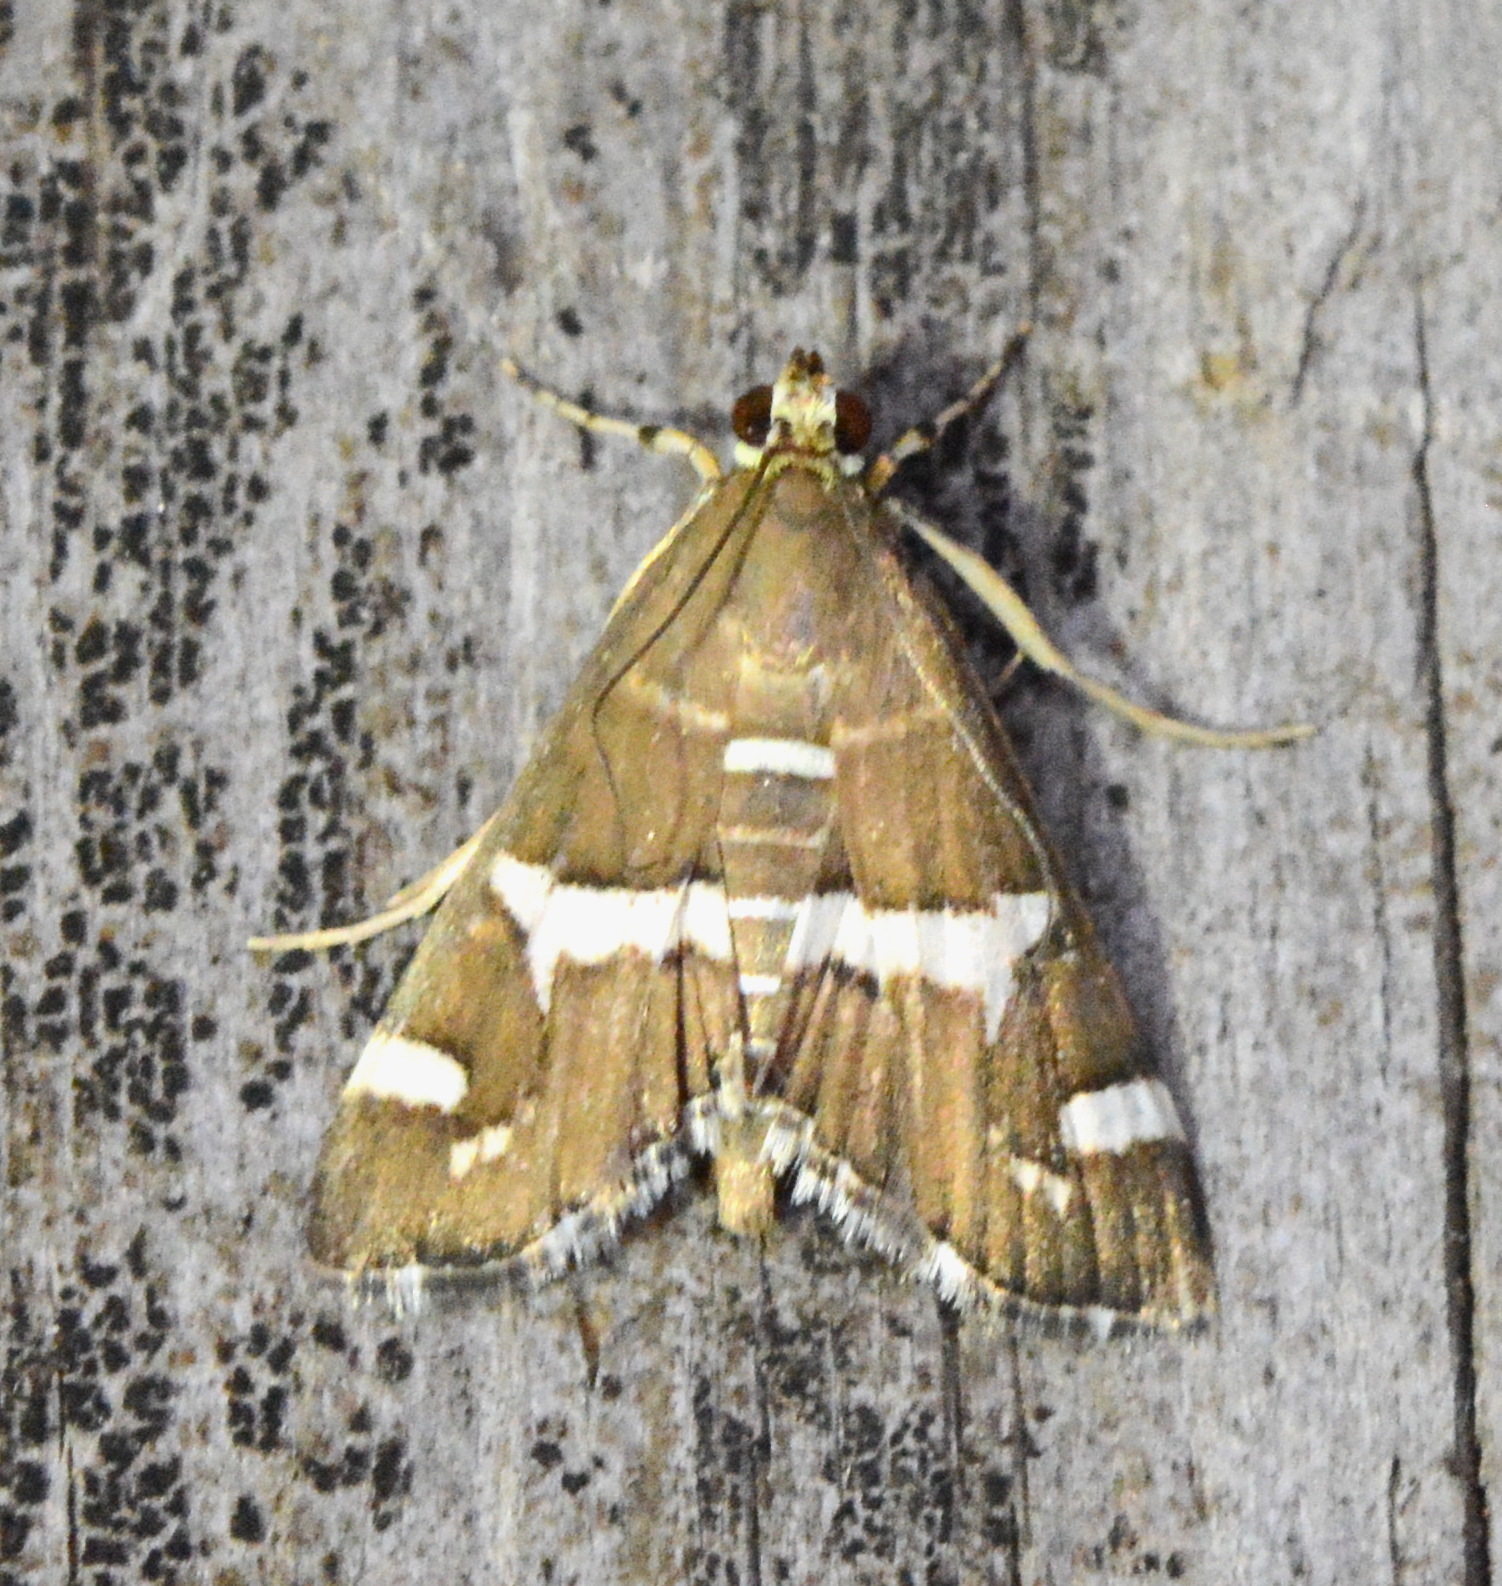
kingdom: Animalia
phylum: Arthropoda
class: Insecta
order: Lepidoptera
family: Crambidae
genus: Spoladea
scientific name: Spoladea recurvalis
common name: Beet webworm moth
